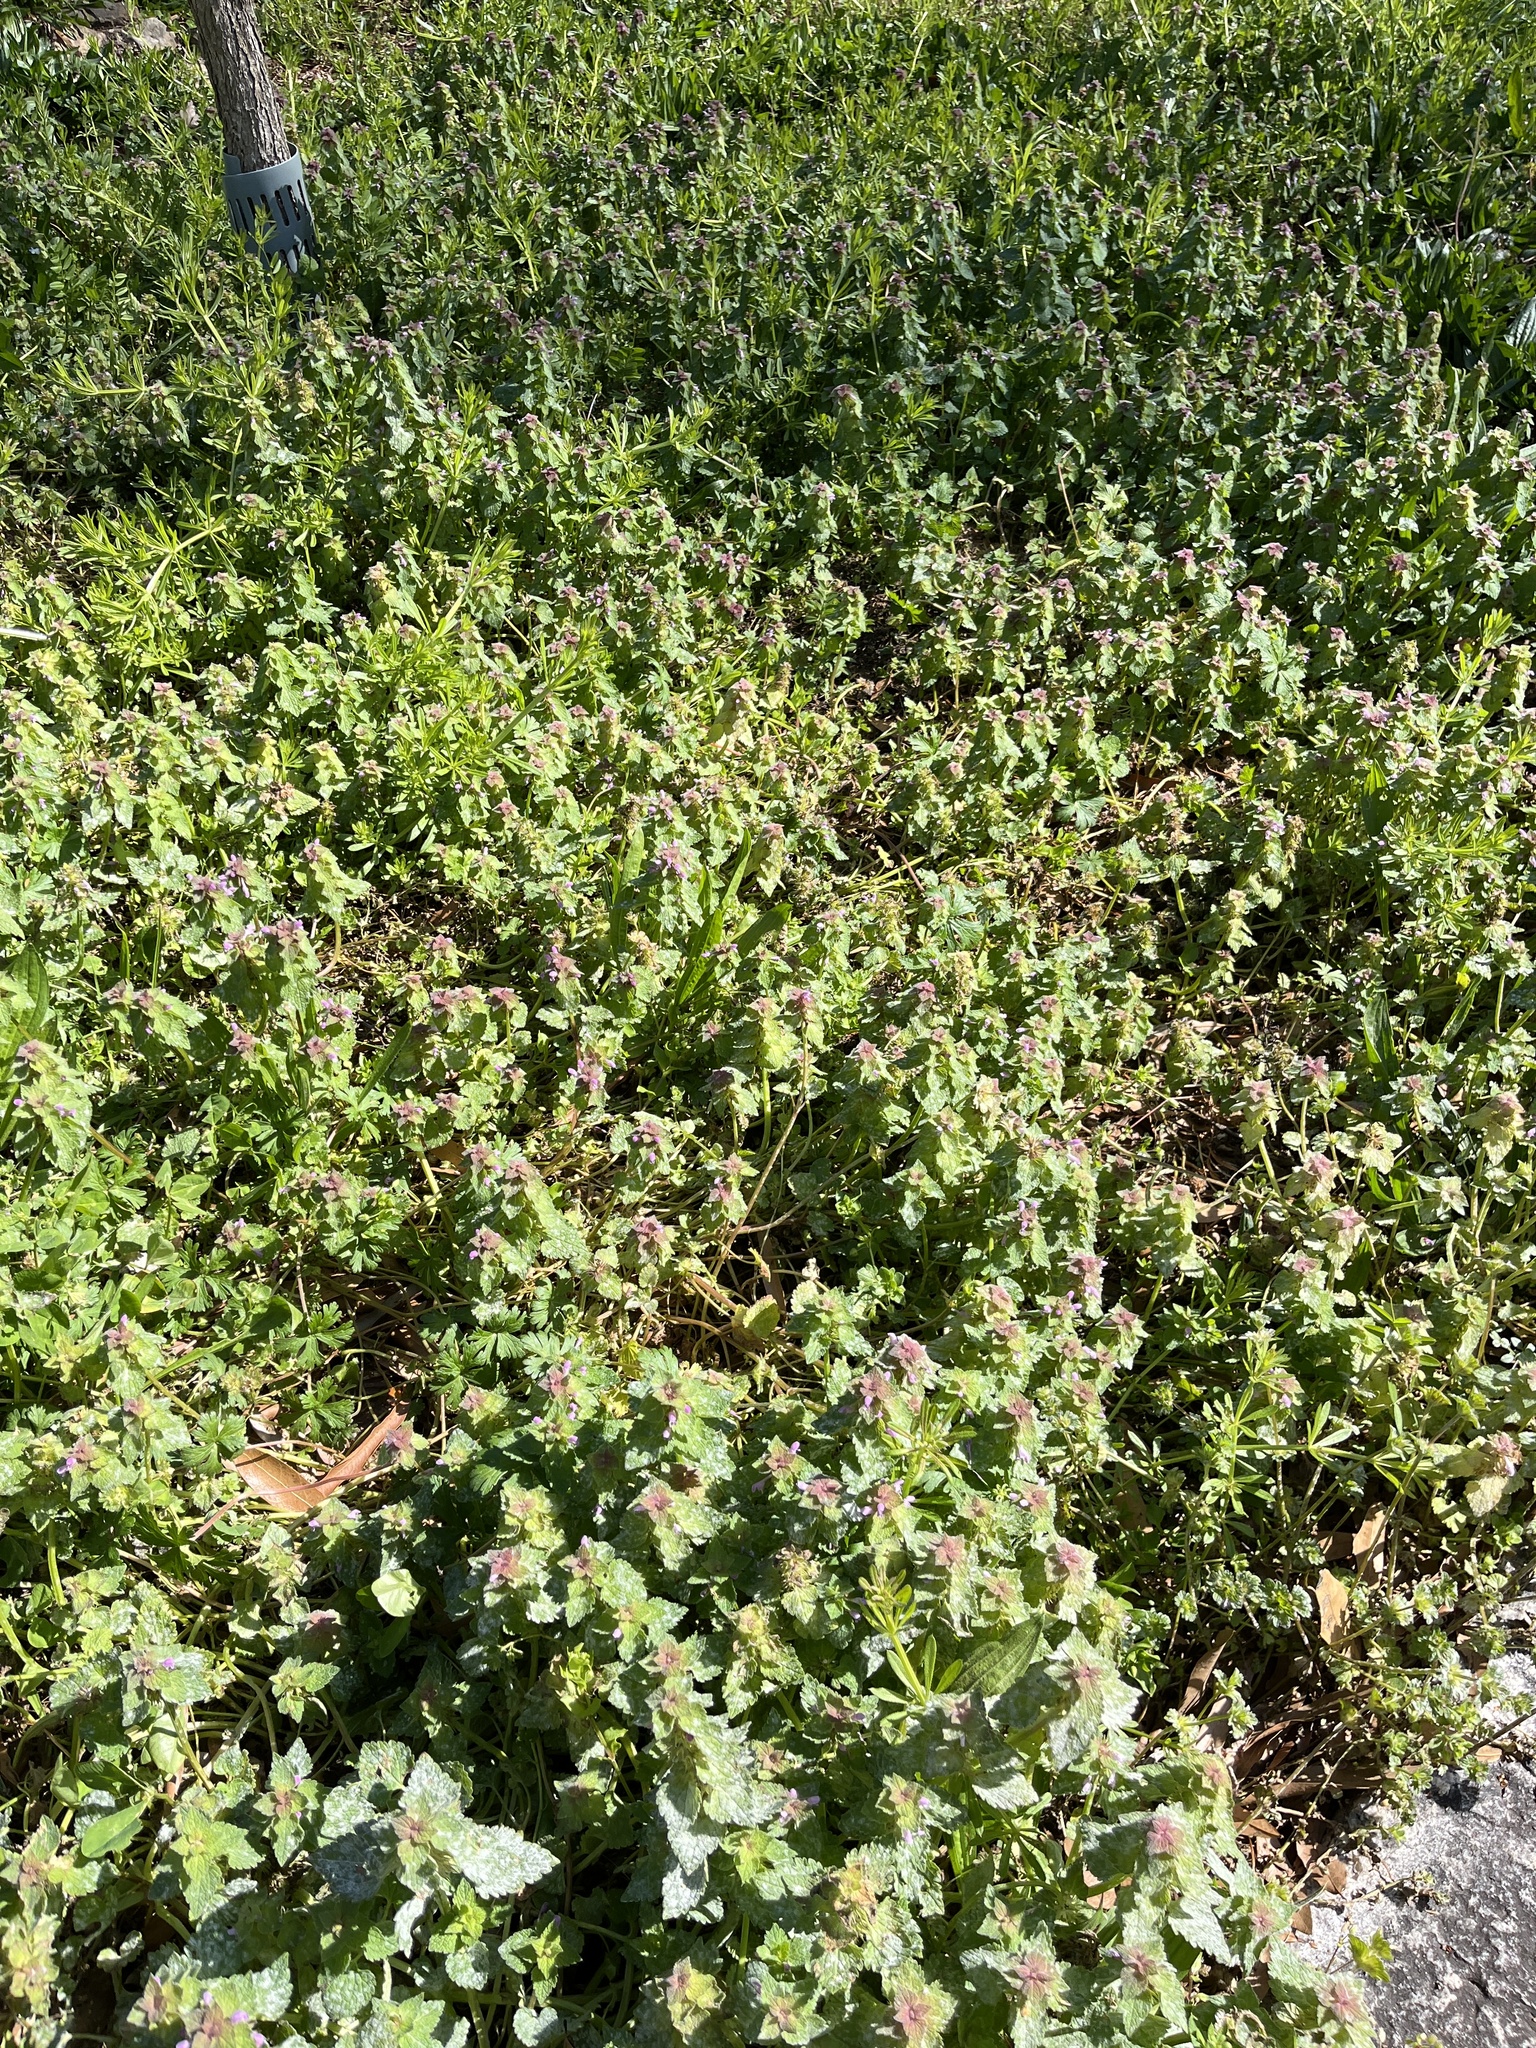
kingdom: Plantae
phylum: Tracheophyta
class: Magnoliopsida
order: Lamiales
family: Lamiaceae
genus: Lamium
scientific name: Lamium purpureum
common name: Red dead-nettle
